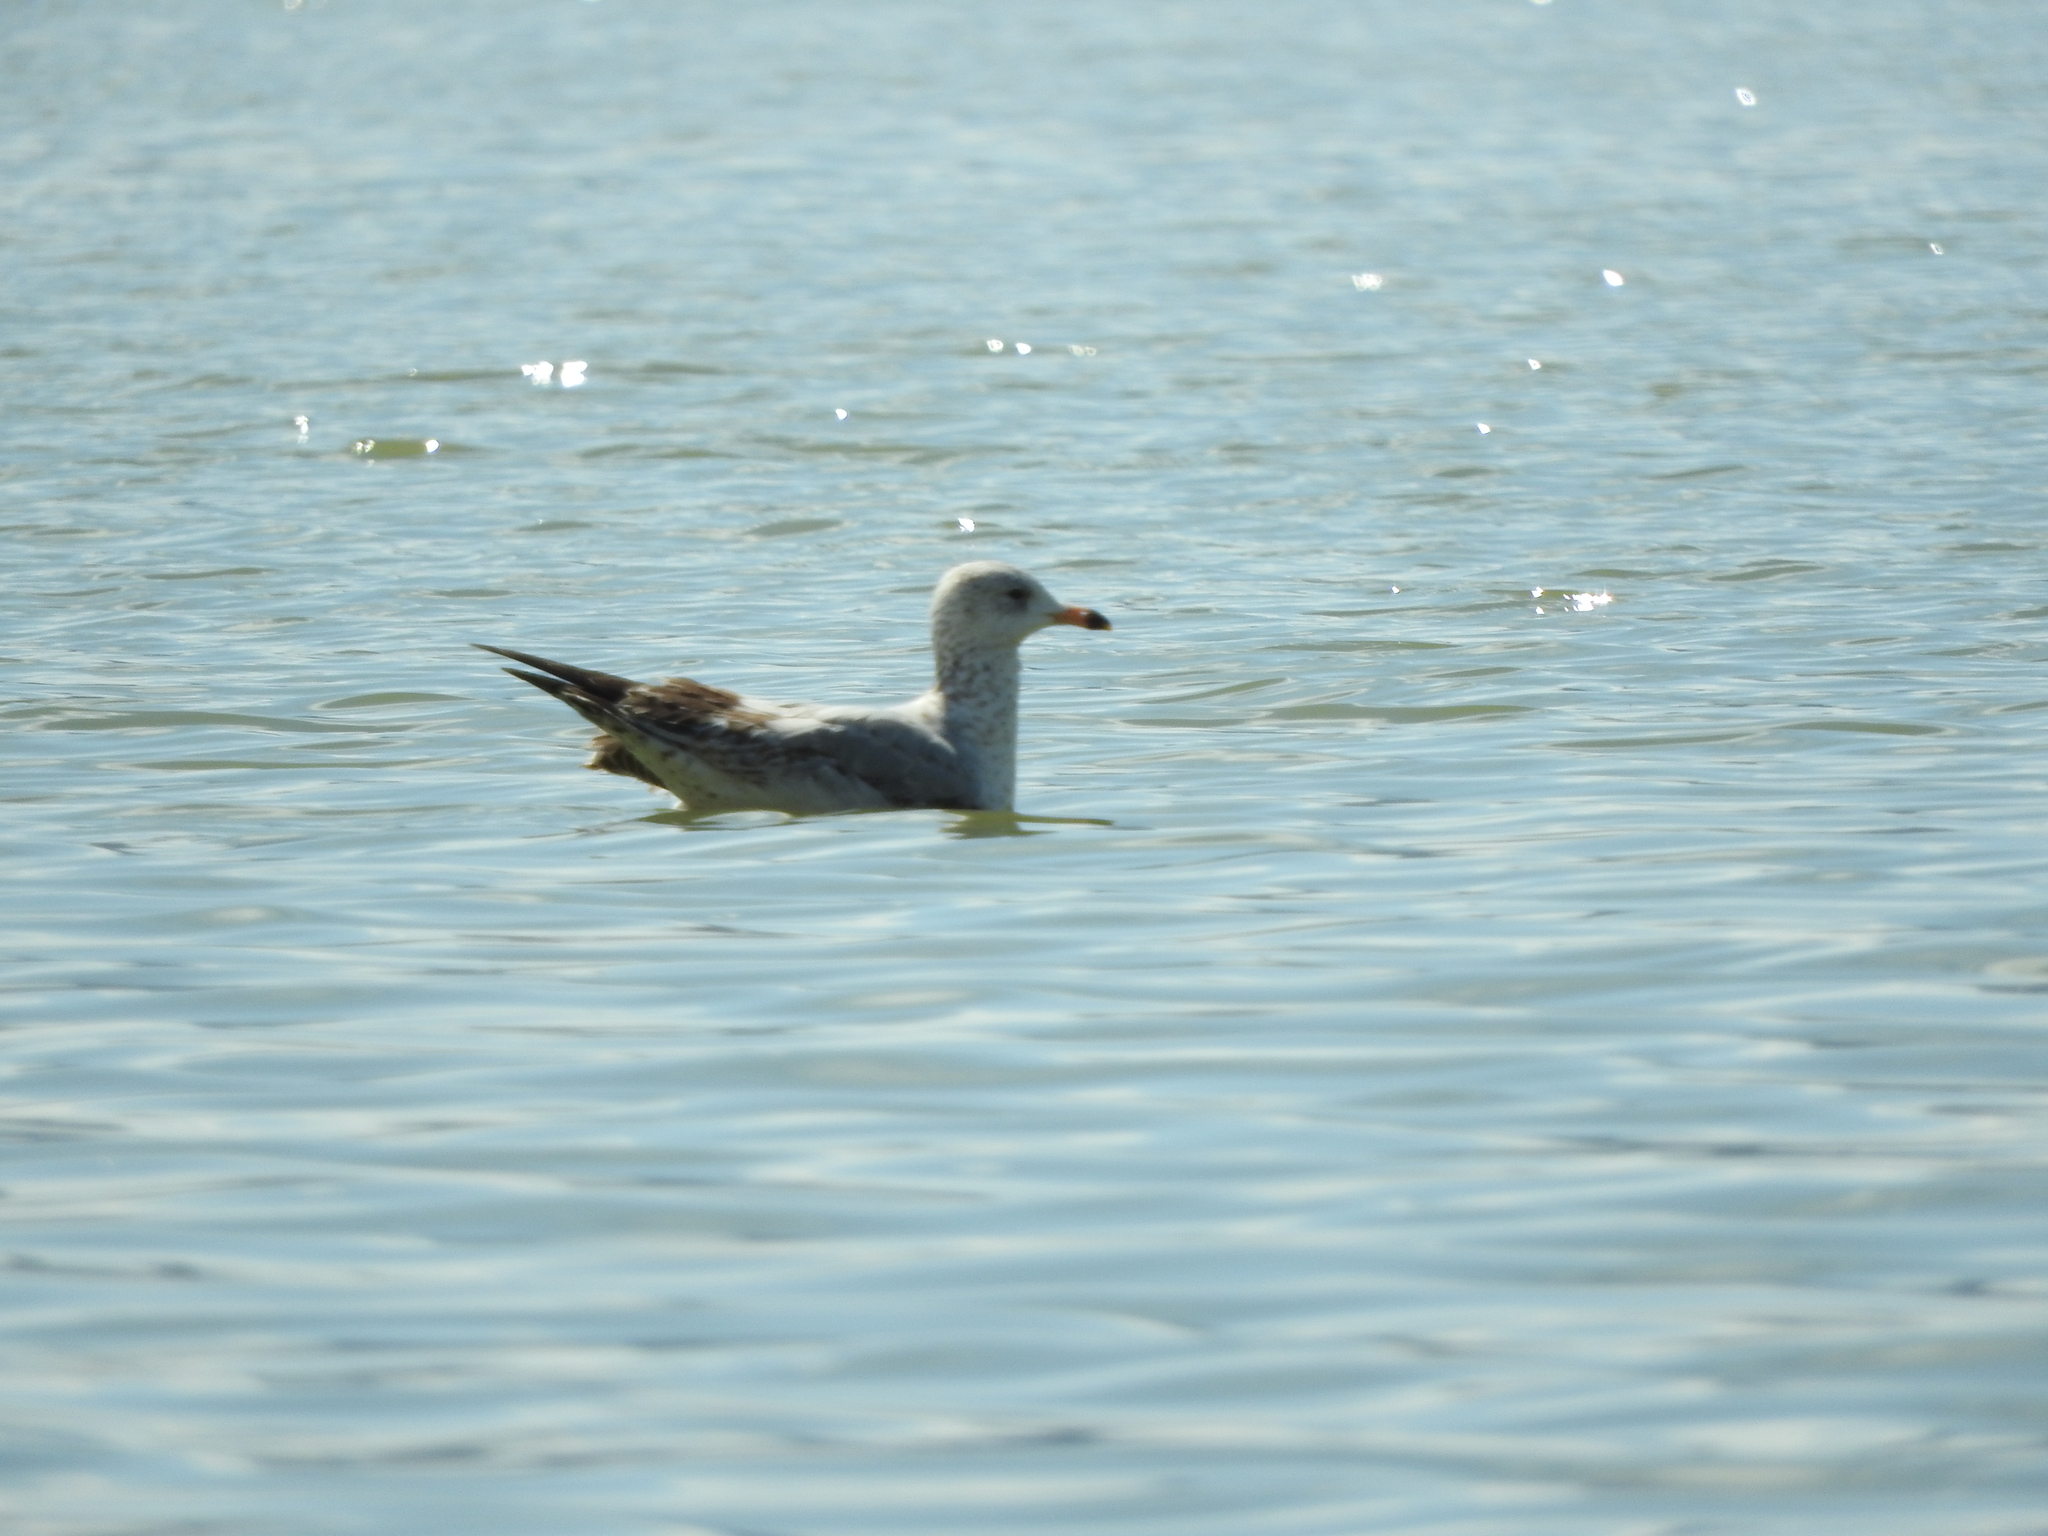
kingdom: Animalia
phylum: Chordata
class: Aves
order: Charadriiformes
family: Laridae
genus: Larus
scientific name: Larus delawarensis
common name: Ring-billed gull
